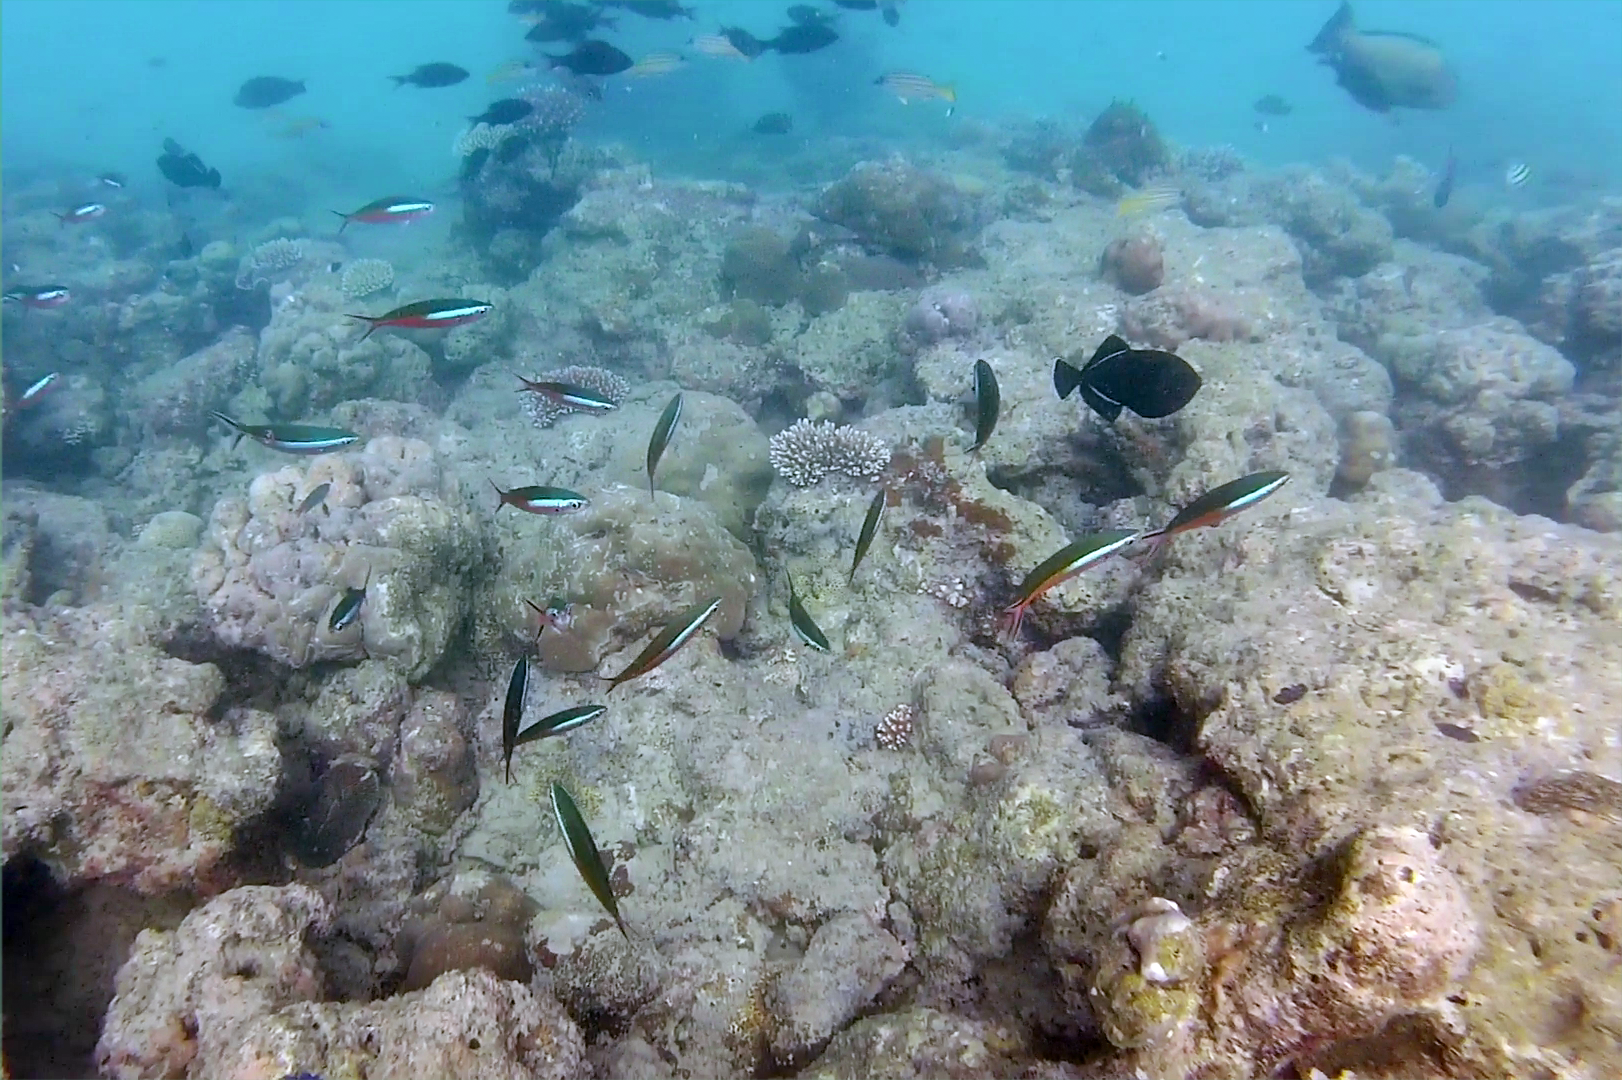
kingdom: Animalia
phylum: Chordata
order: Perciformes
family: Caesionidae
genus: Pterocaesio
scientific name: Pterocaesio tile
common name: Dark-banded fusilier
